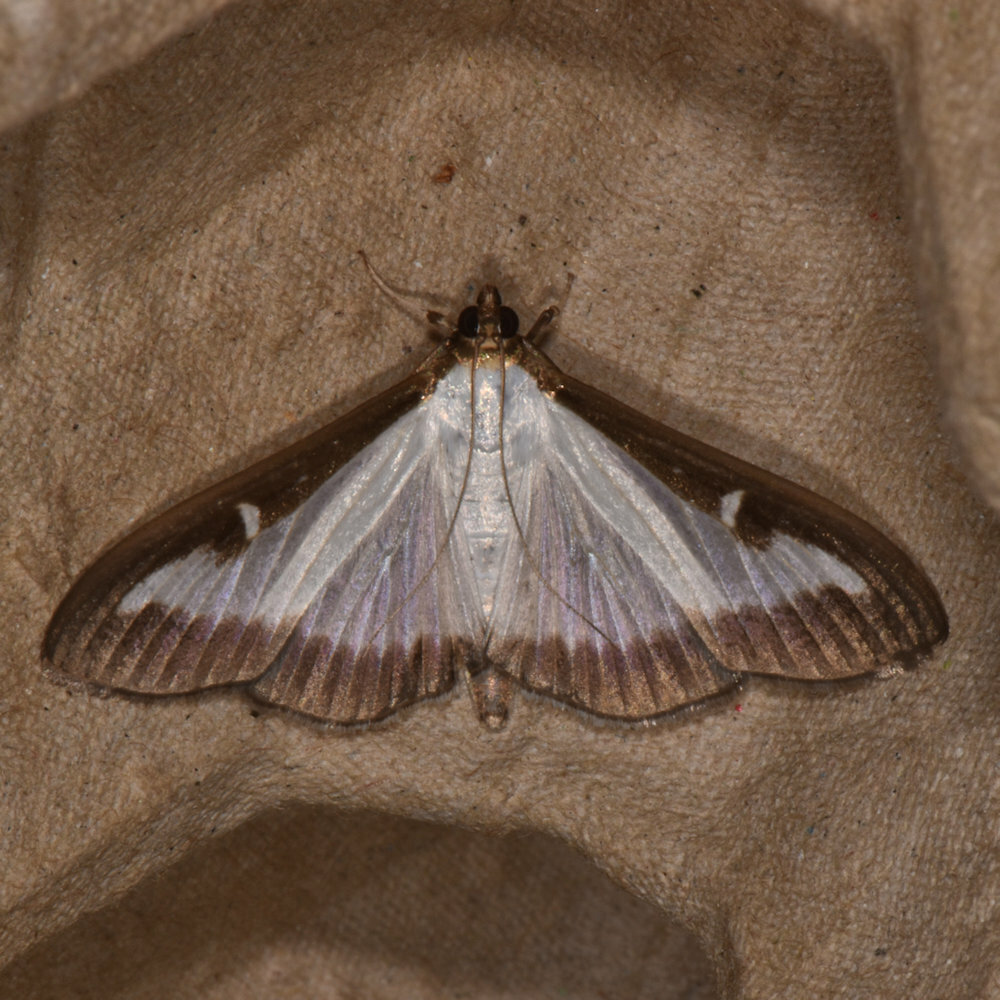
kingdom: Animalia
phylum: Arthropoda
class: Insecta
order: Lepidoptera
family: Crambidae
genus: Cydalima
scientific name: Cydalima perspectalis
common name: Box tree moth
